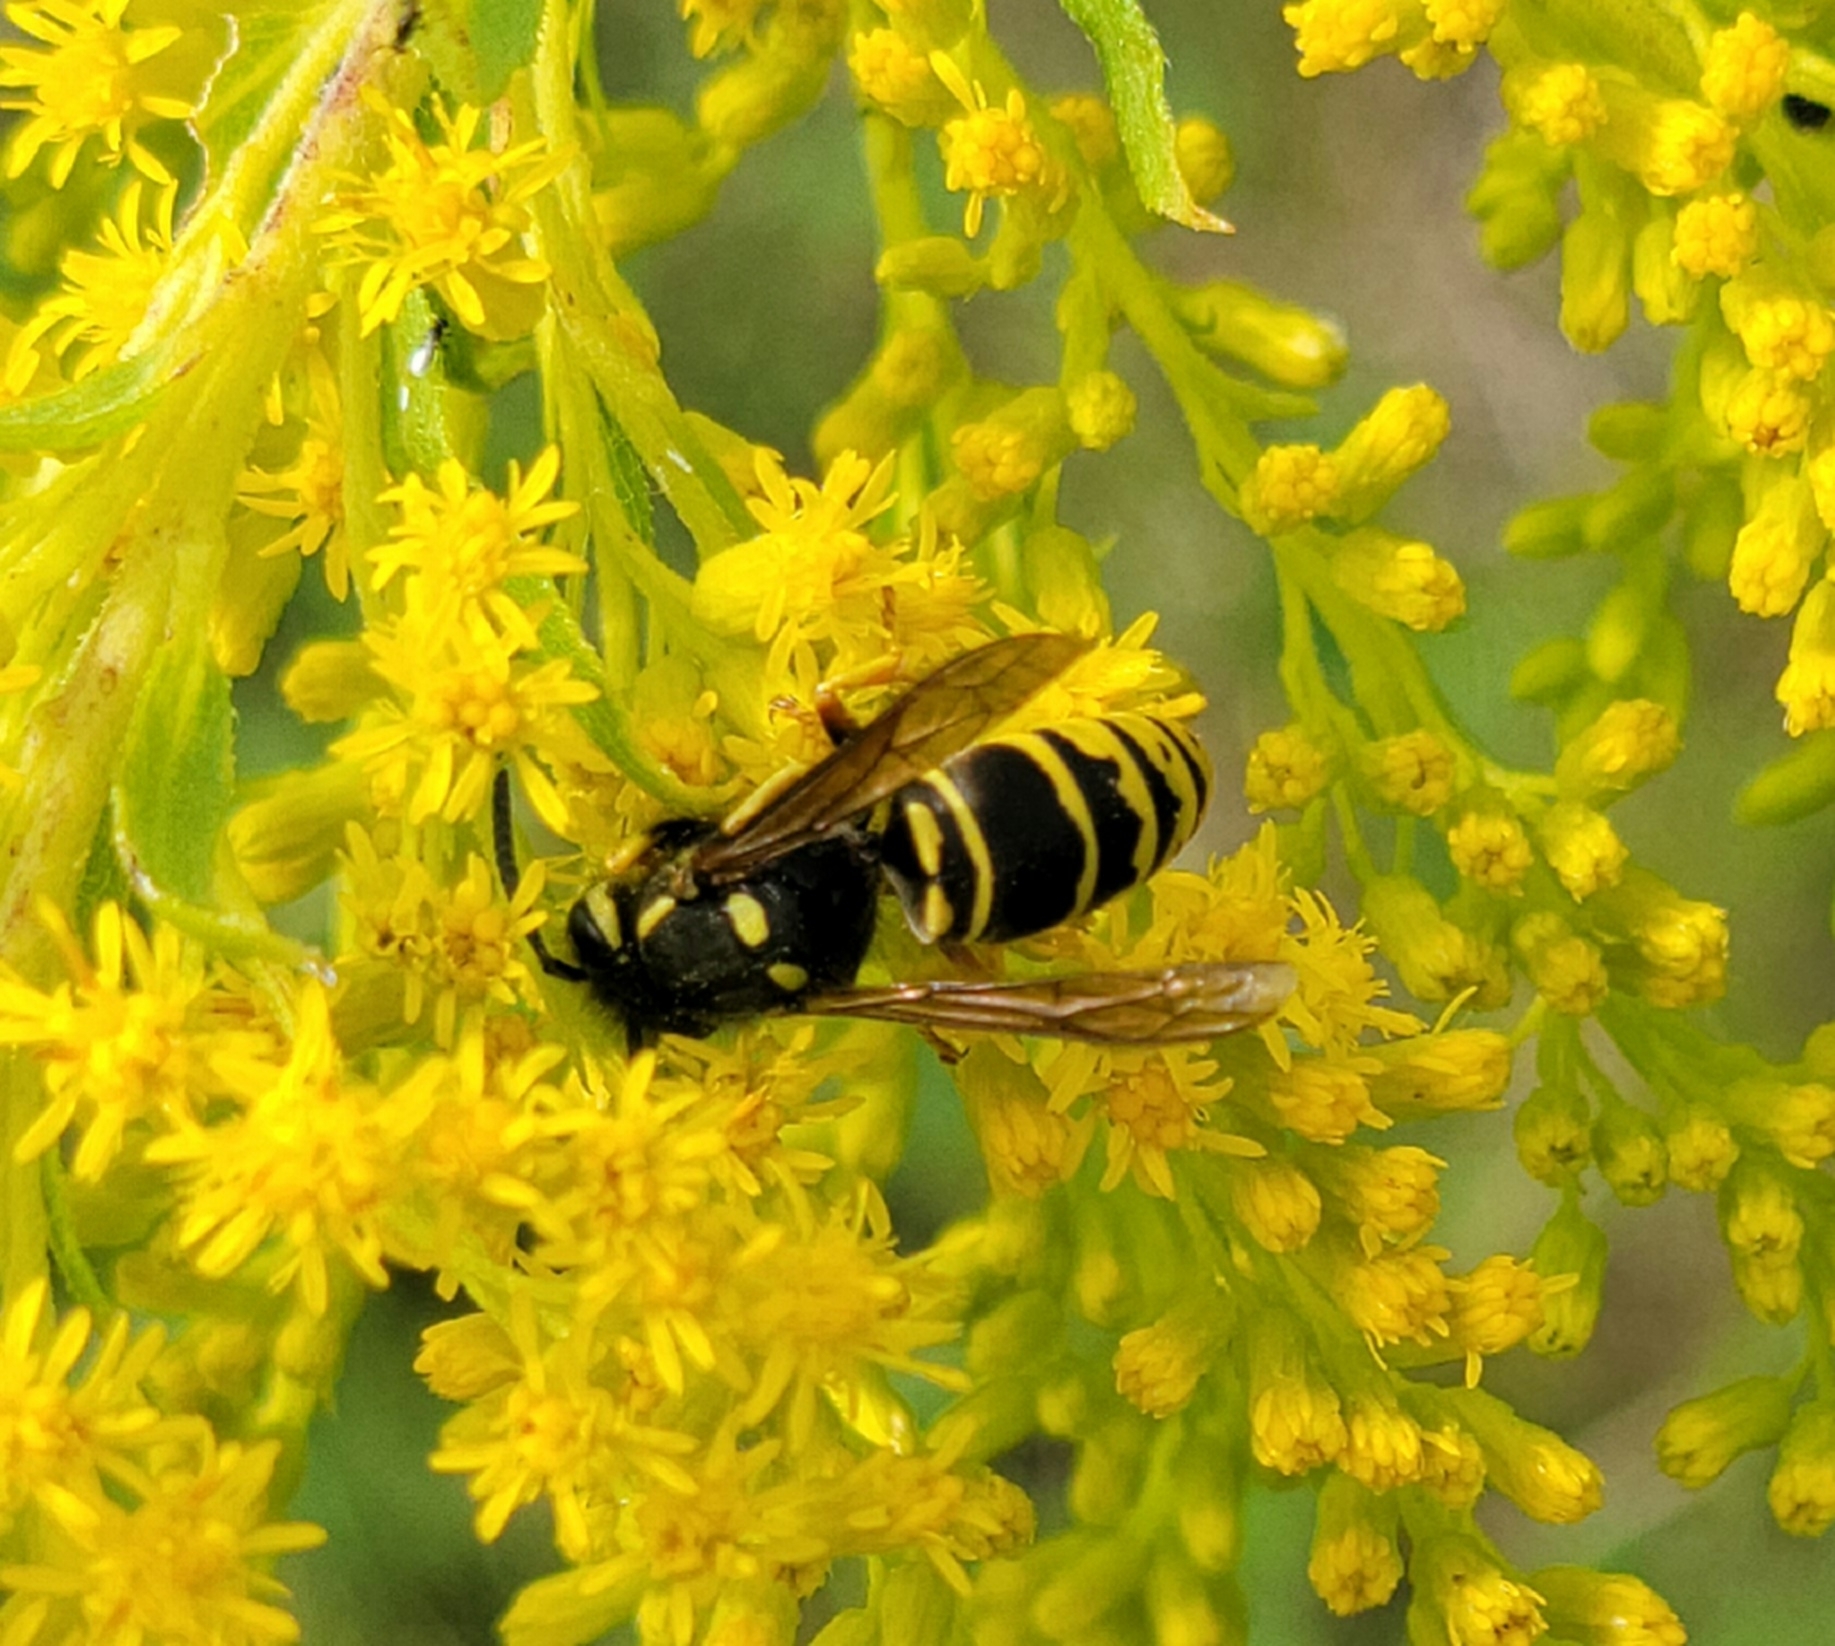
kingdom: Animalia
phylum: Arthropoda
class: Insecta
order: Hymenoptera
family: Vespidae
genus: Vespula
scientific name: Vespula vidua
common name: Widow yellowjacket
